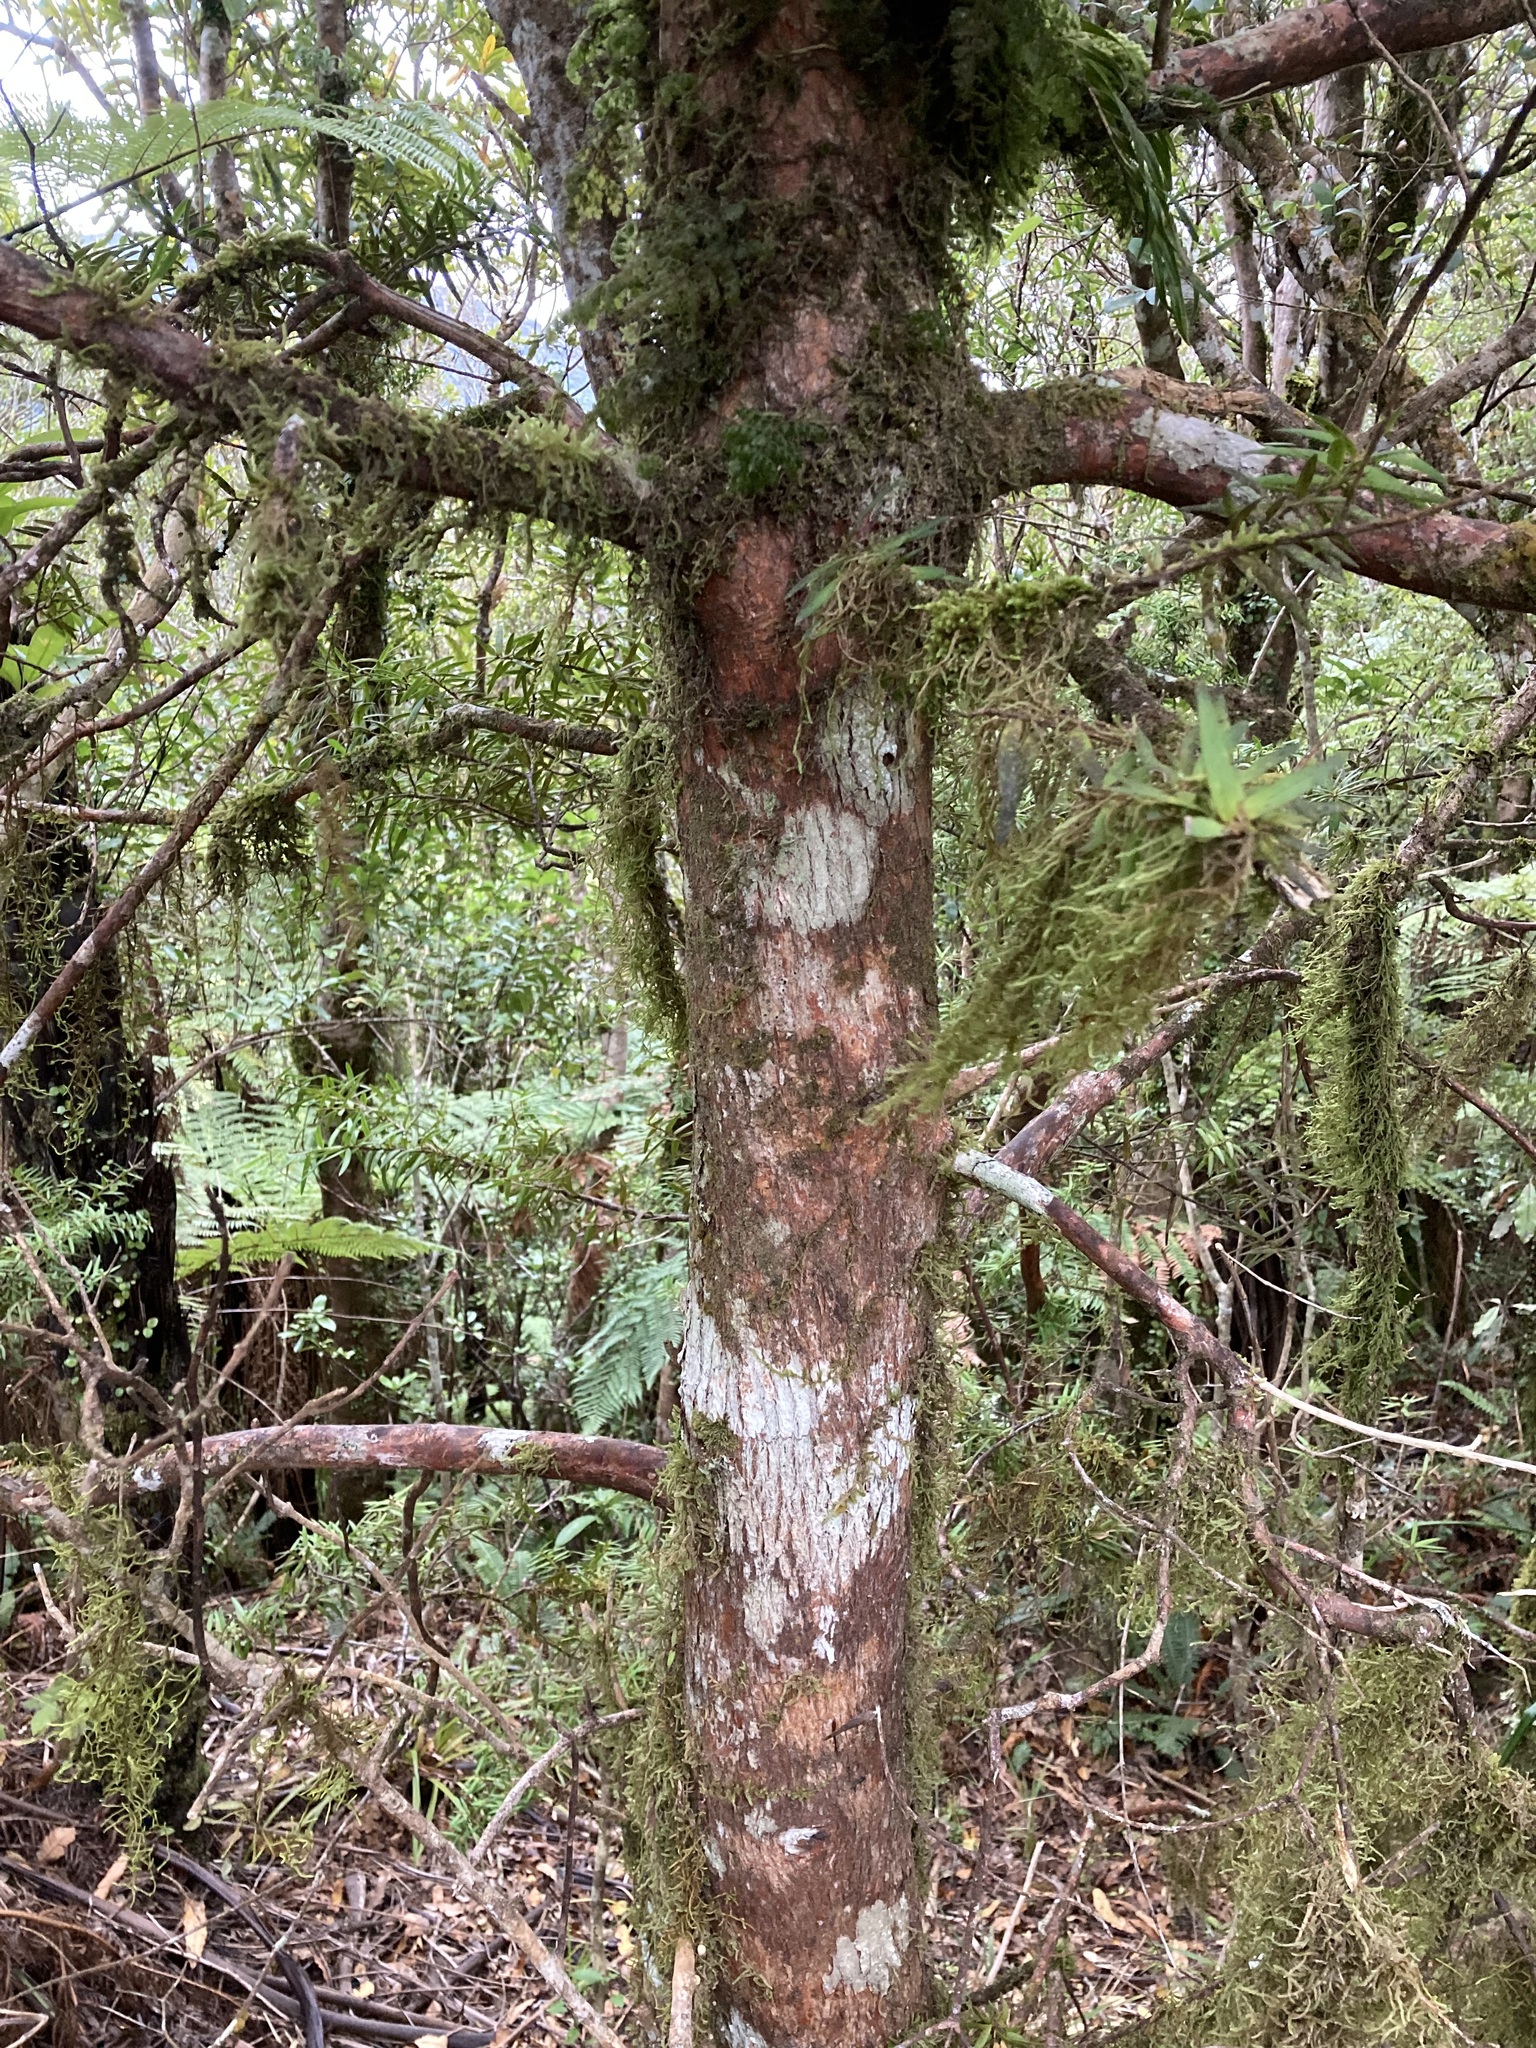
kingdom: Plantae
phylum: Tracheophyta
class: Pinopsida
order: Pinales
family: Podocarpaceae
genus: Podocarpus
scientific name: Podocarpus laetus
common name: Hall's totara
